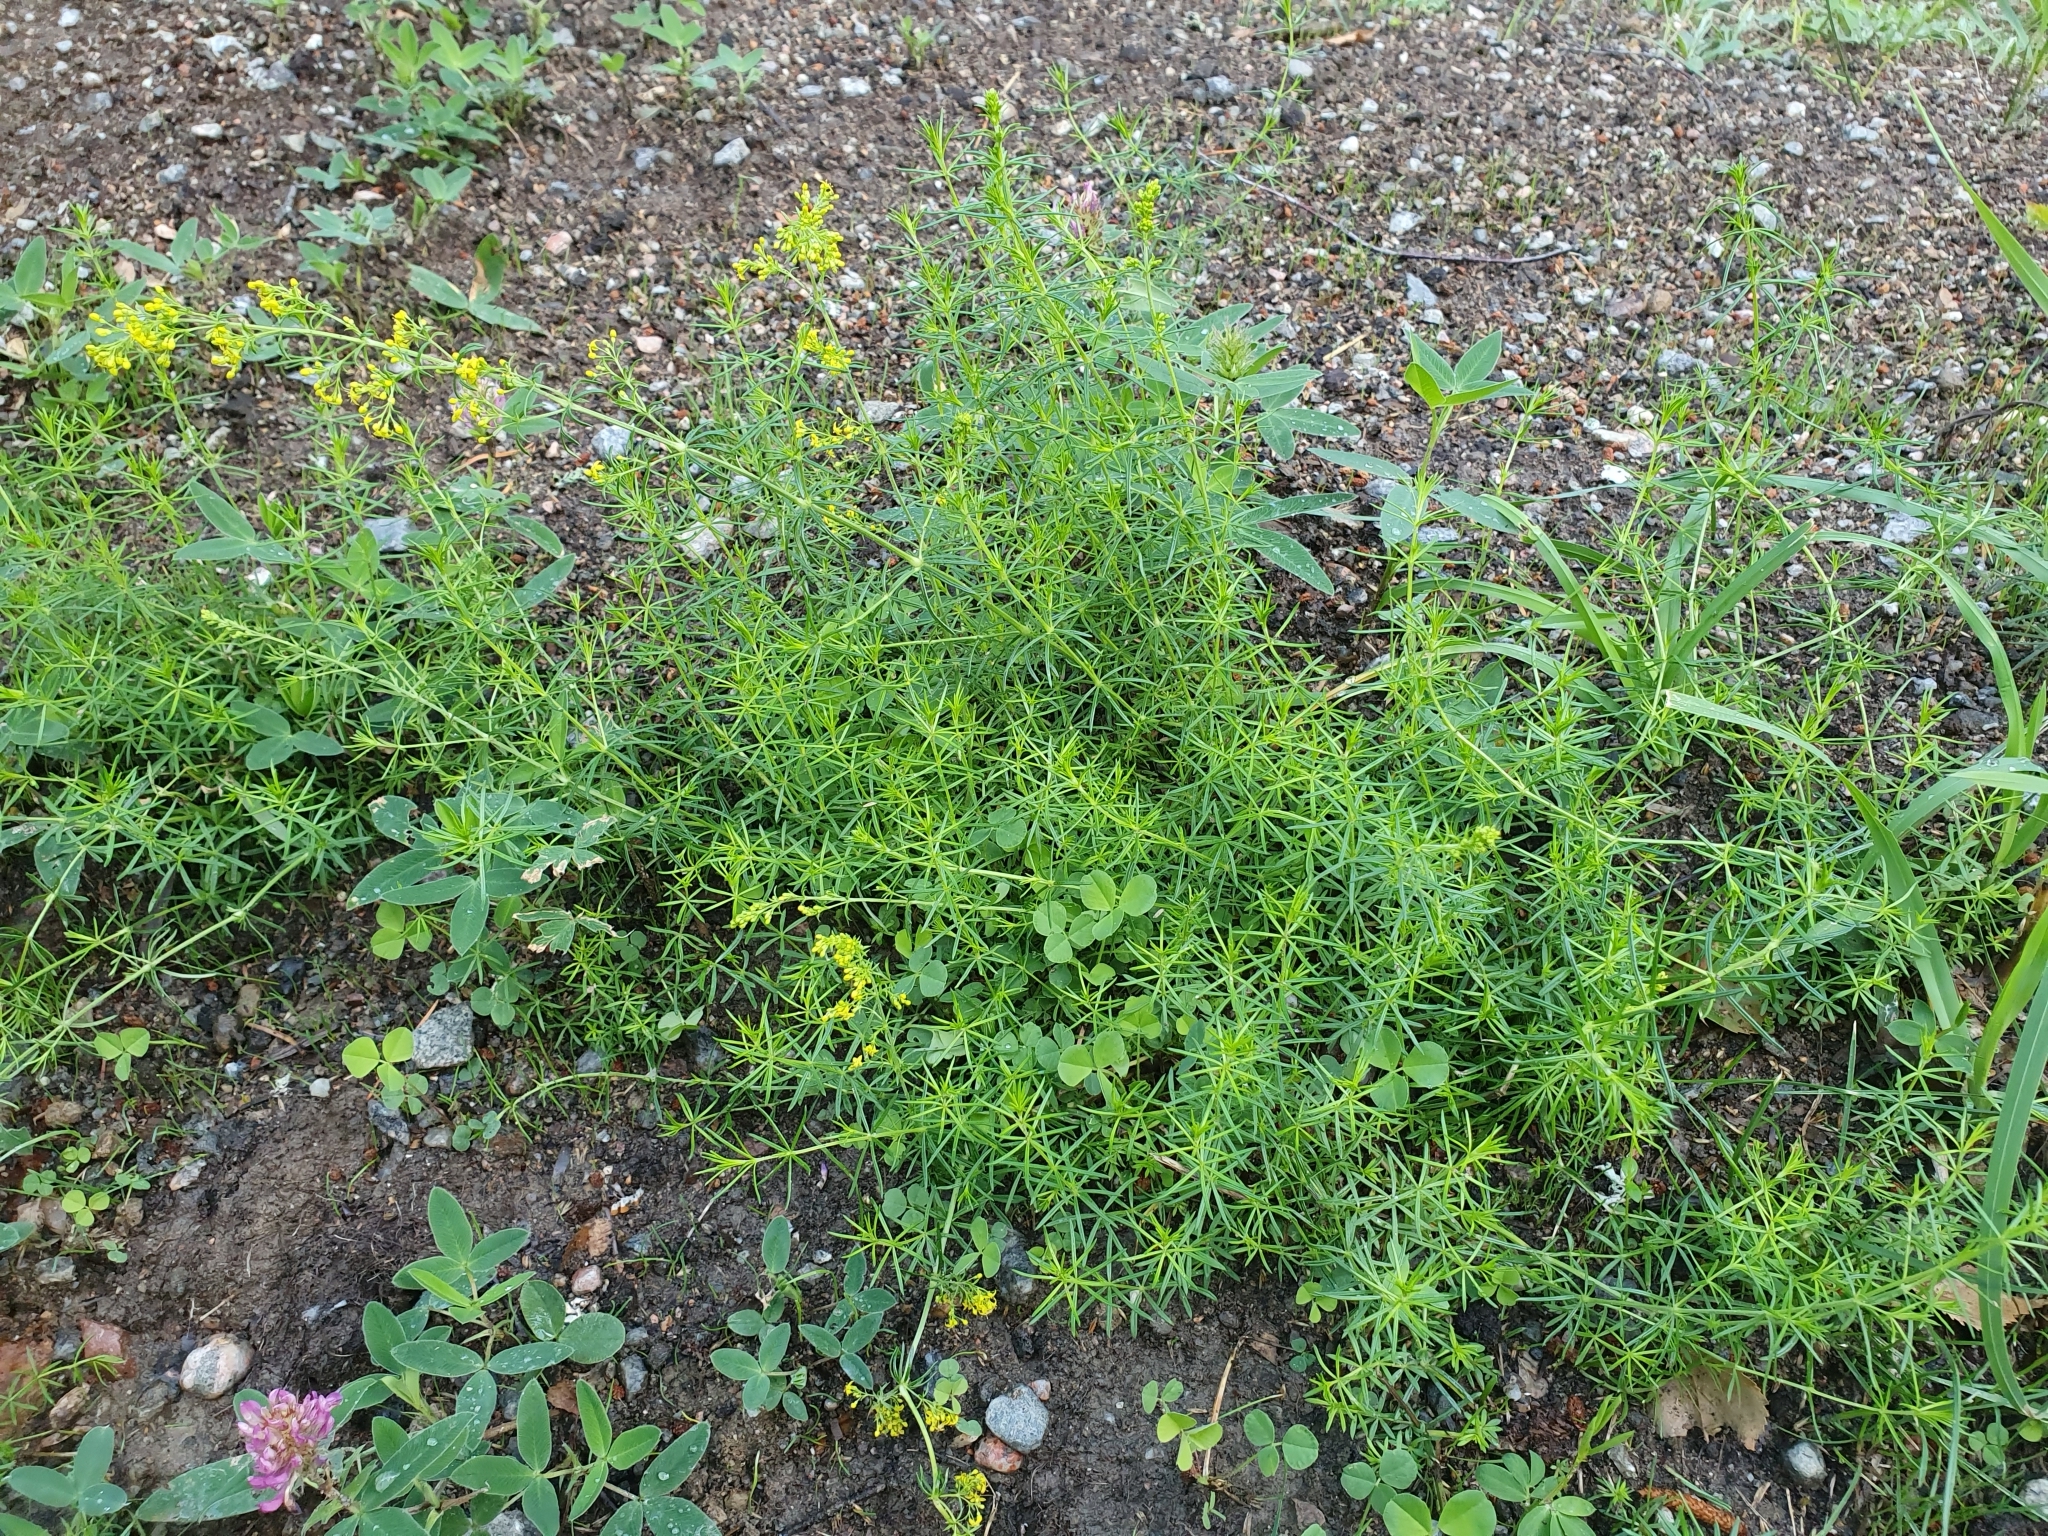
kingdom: Plantae
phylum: Tracheophyta
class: Magnoliopsida
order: Gentianales
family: Rubiaceae
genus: Galium
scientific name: Galium verum
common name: Lady's bedstraw
